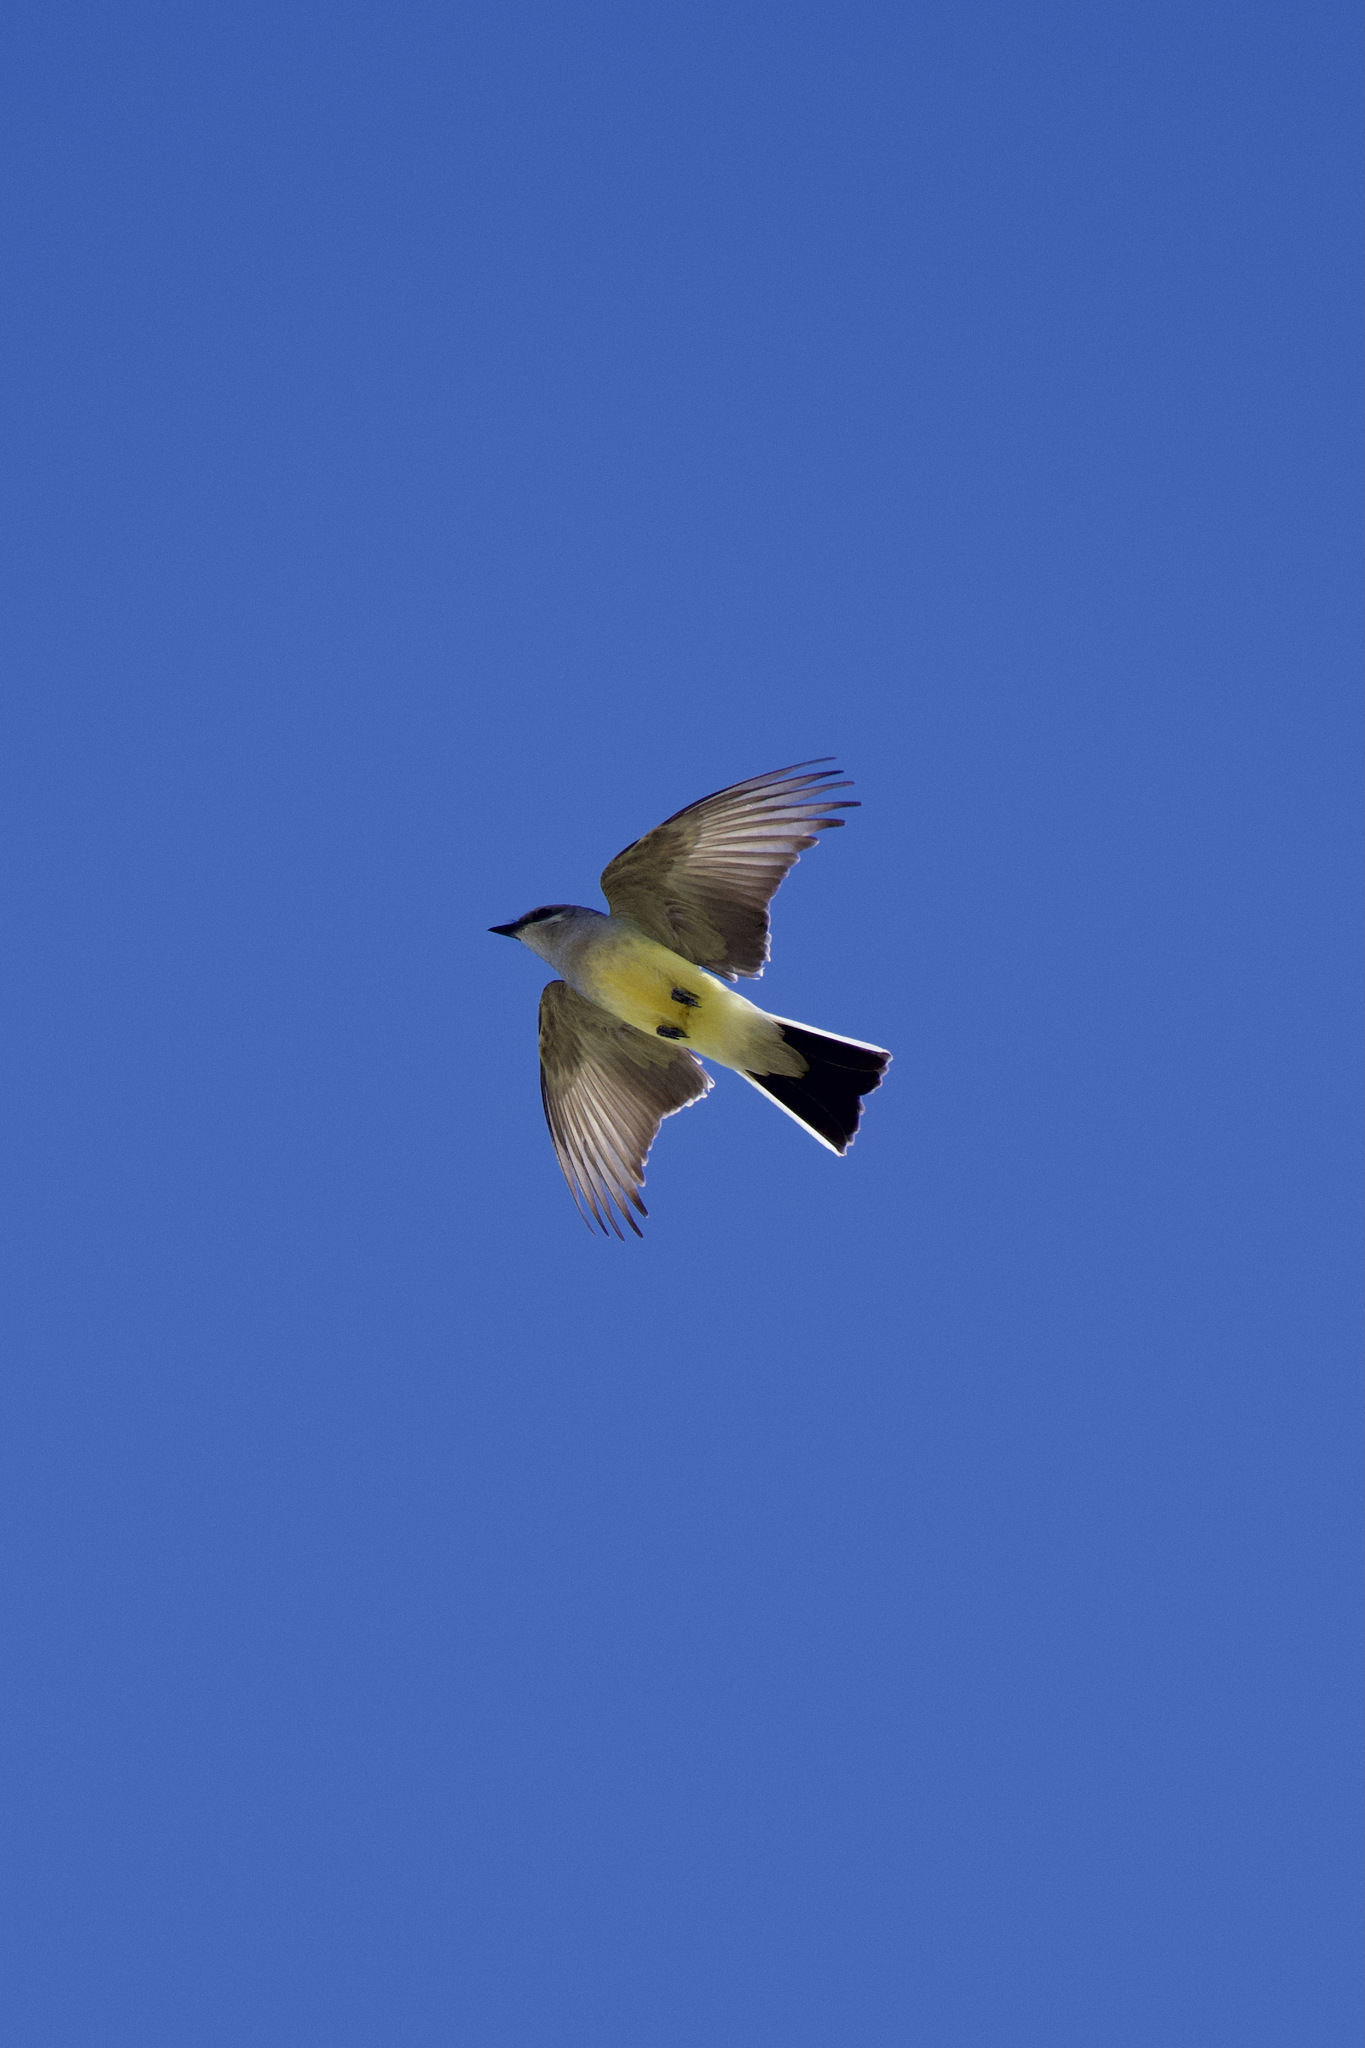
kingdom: Animalia
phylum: Chordata
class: Aves
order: Passeriformes
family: Tyrannidae
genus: Tyrannus
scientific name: Tyrannus verticalis
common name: Western kingbird
